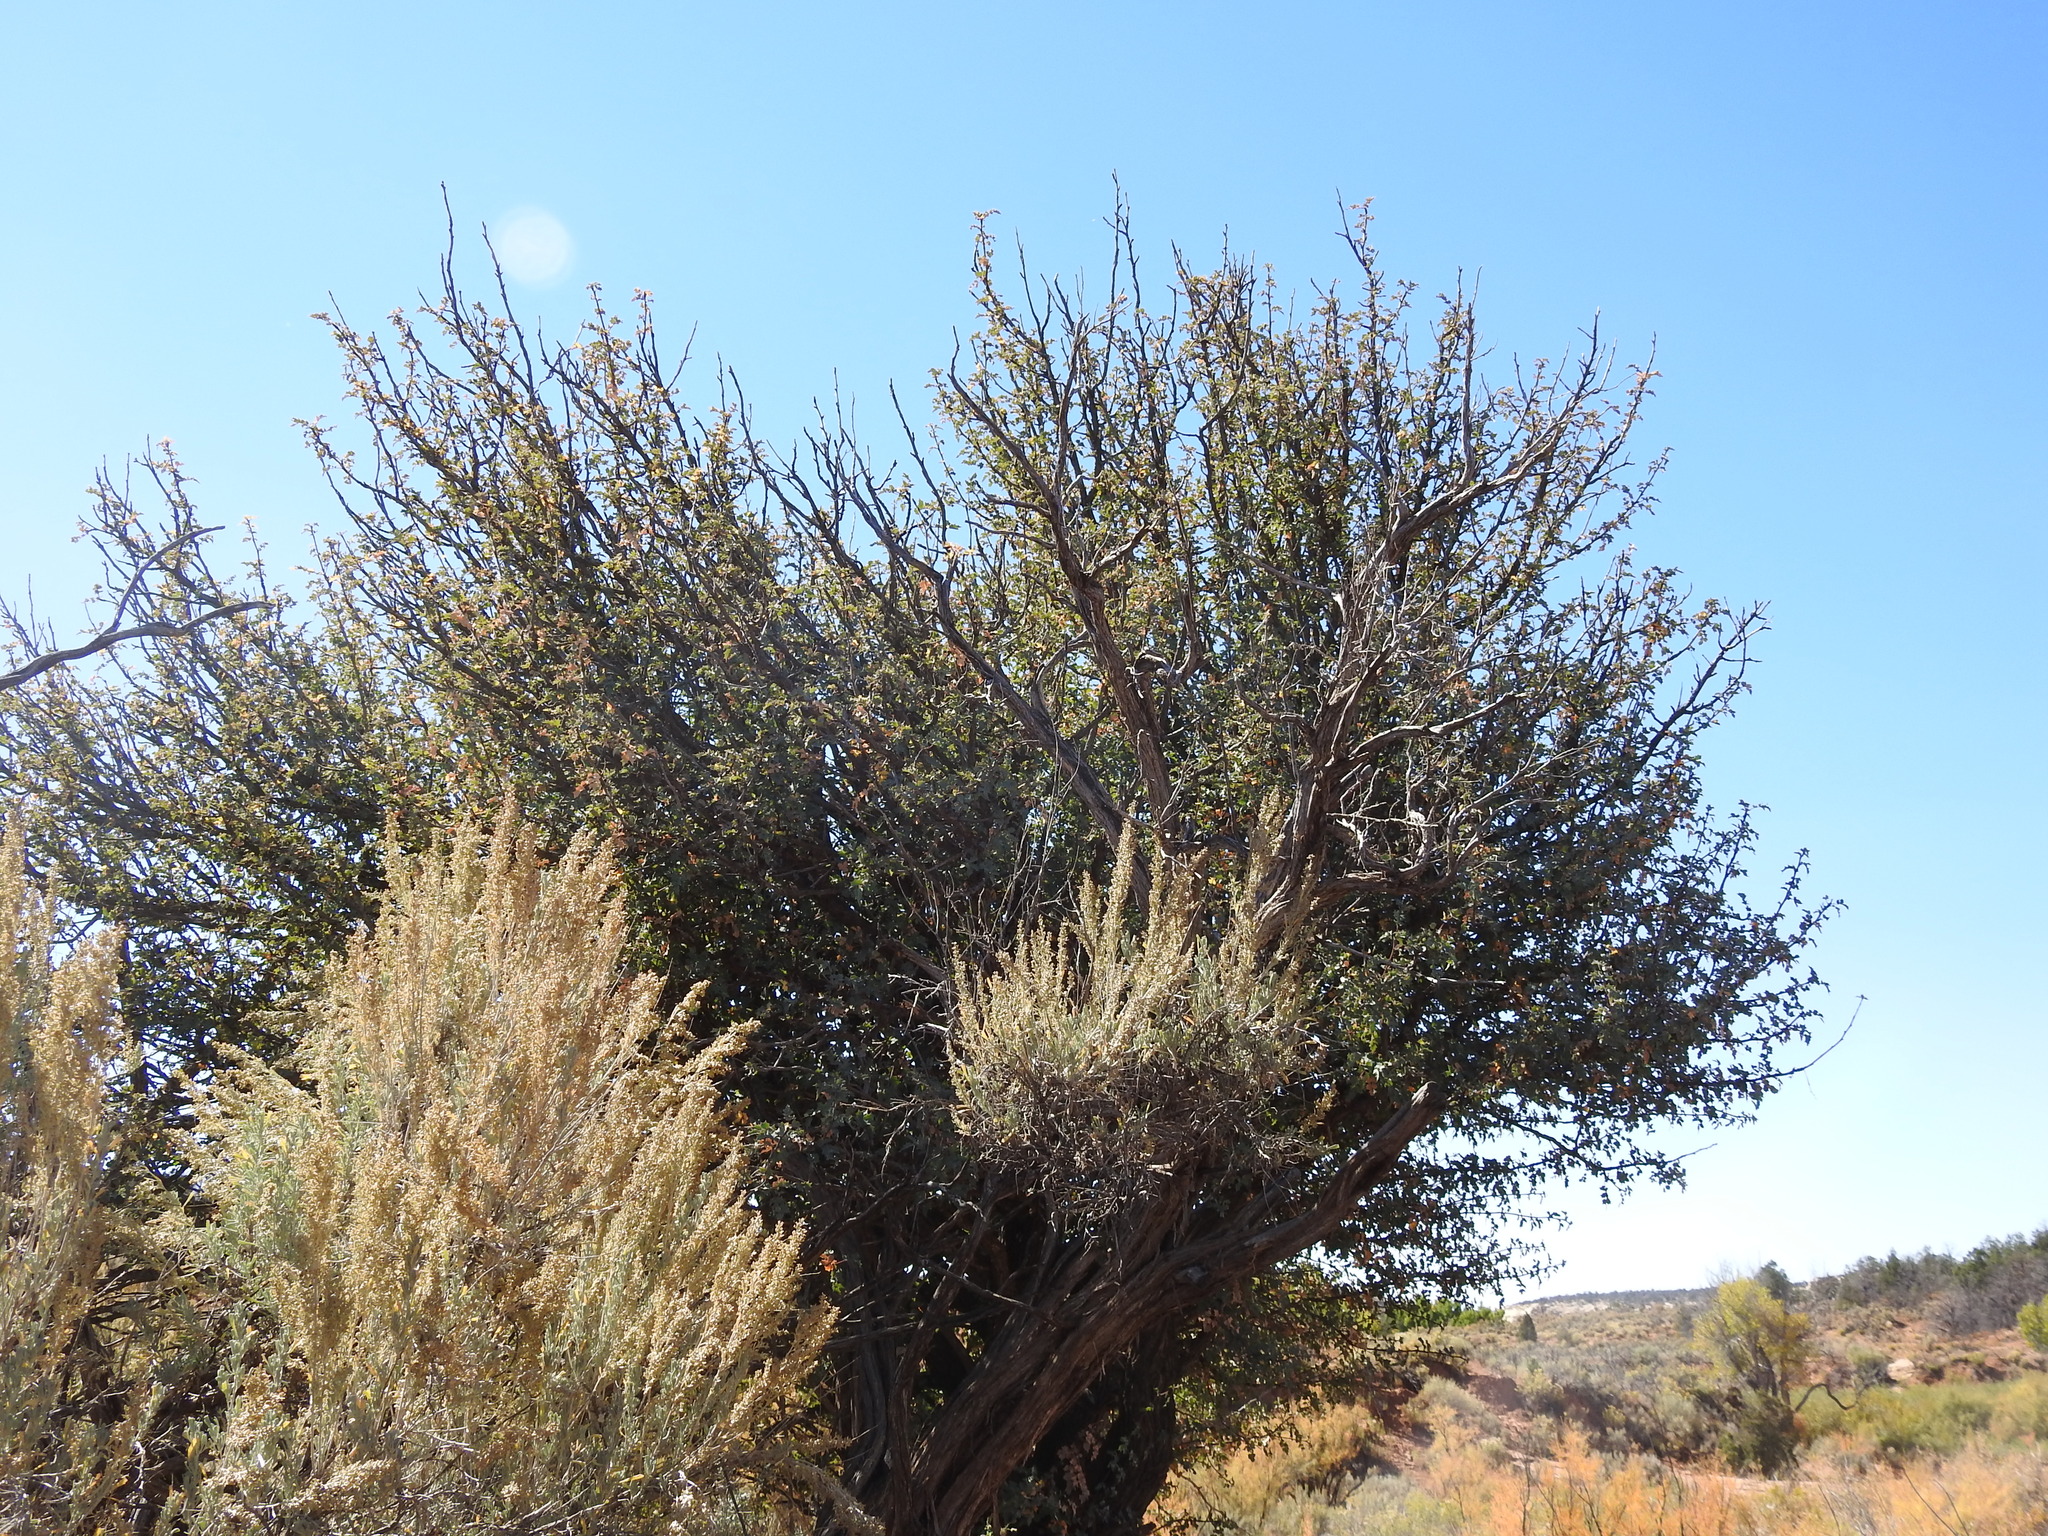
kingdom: Plantae
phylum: Tracheophyta
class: Magnoliopsida
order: Ranunculales
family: Berberidaceae
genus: Alloberberis
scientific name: Alloberberis fremontii
